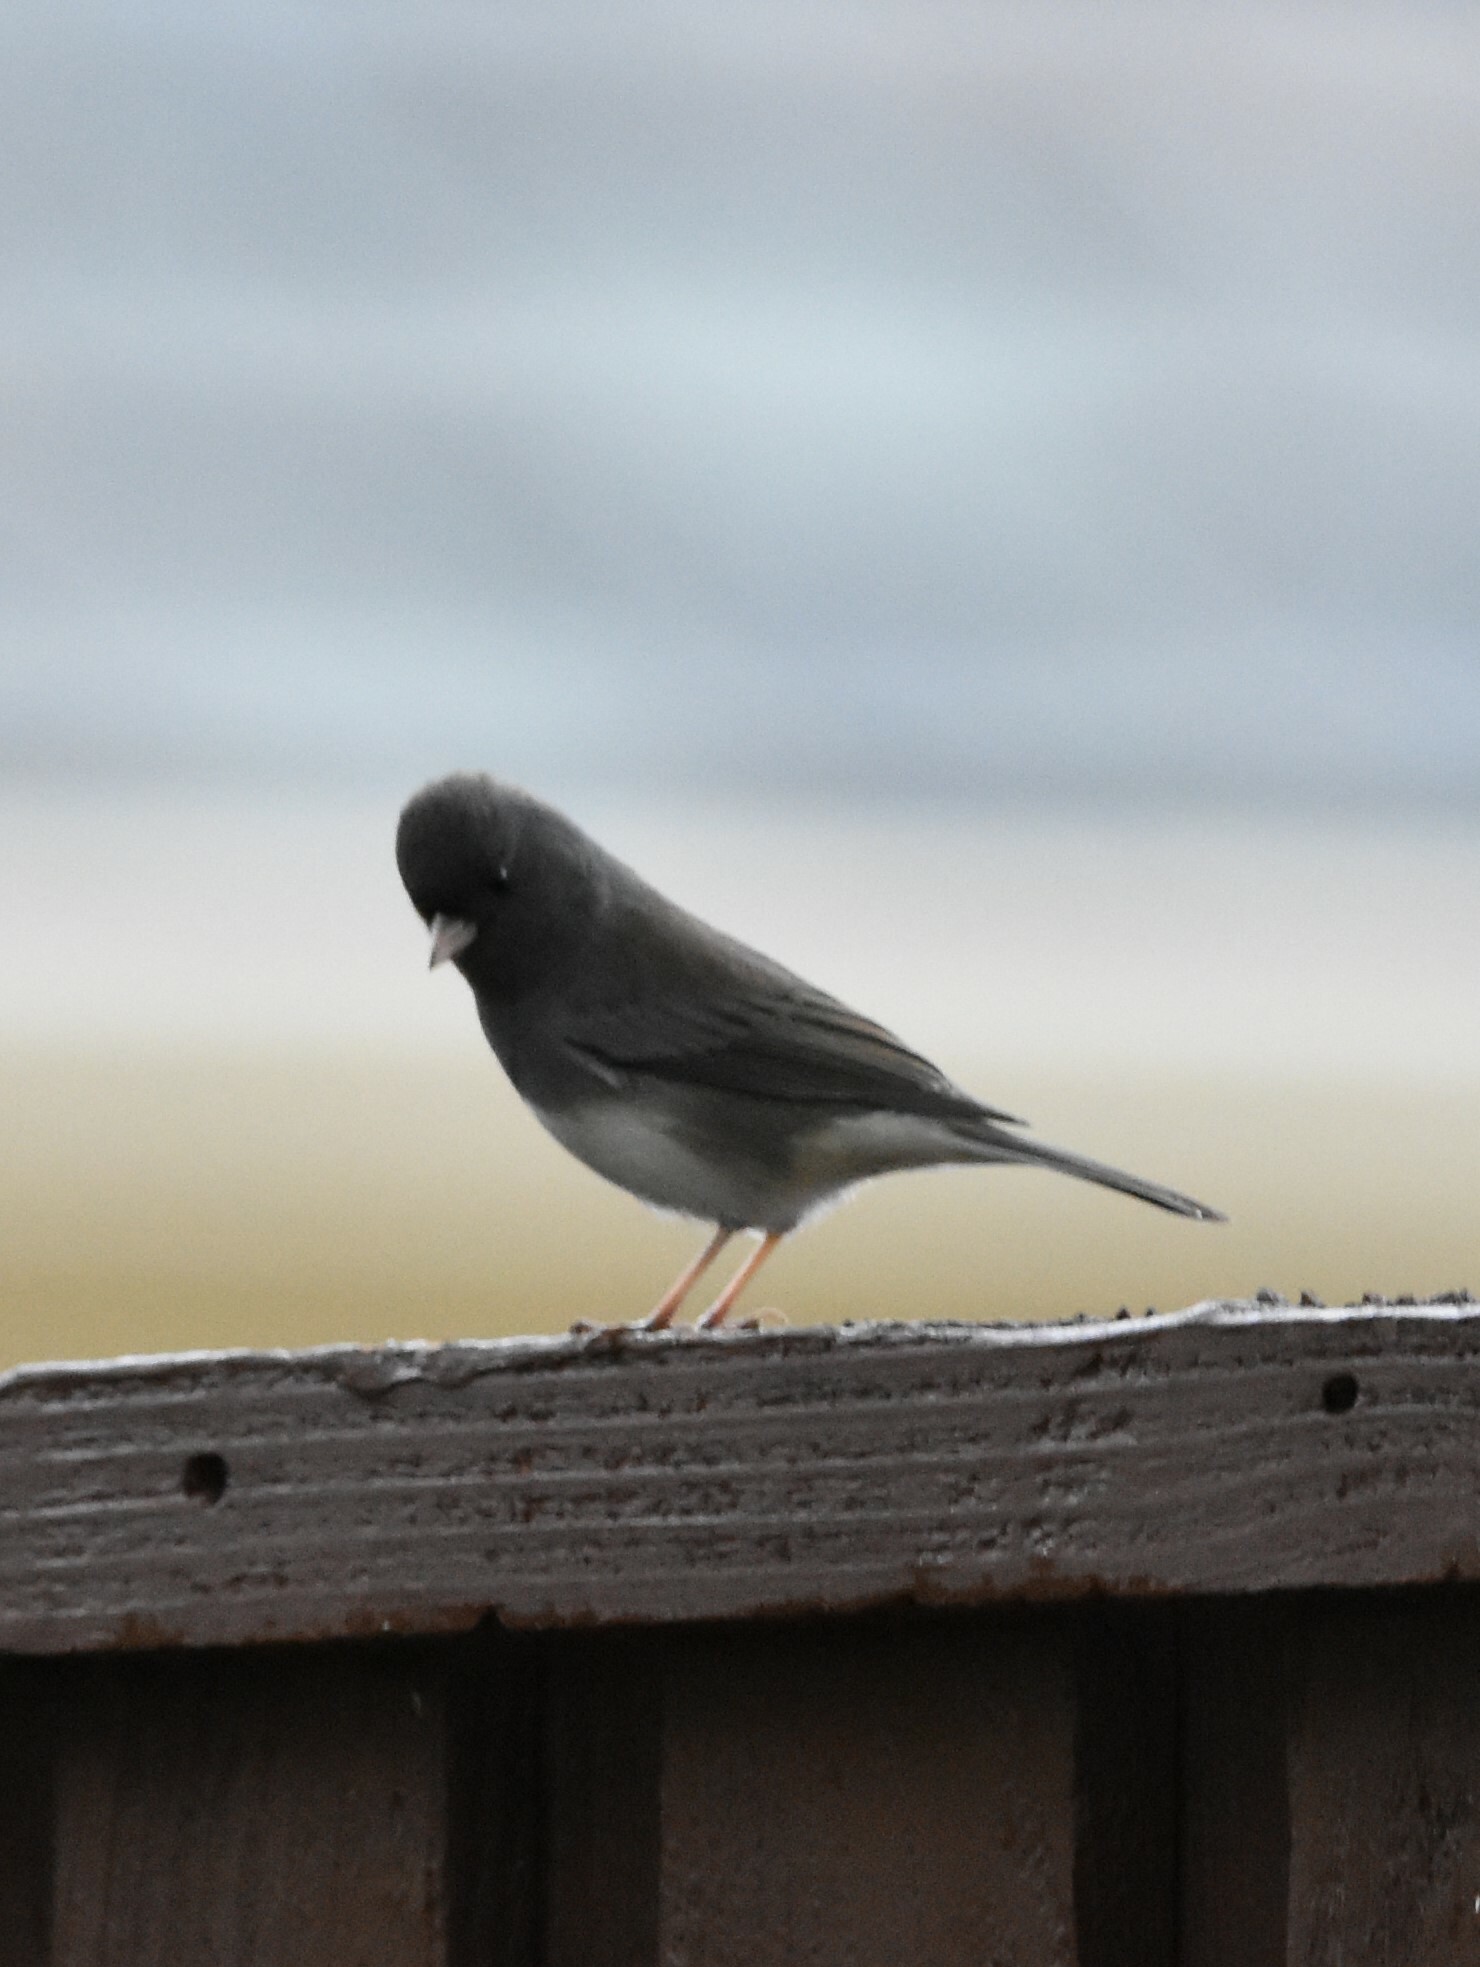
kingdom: Animalia
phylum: Chordata
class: Aves
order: Passeriformes
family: Passerellidae
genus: Junco
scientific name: Junco hyemalis
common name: Dark-eyed junco
